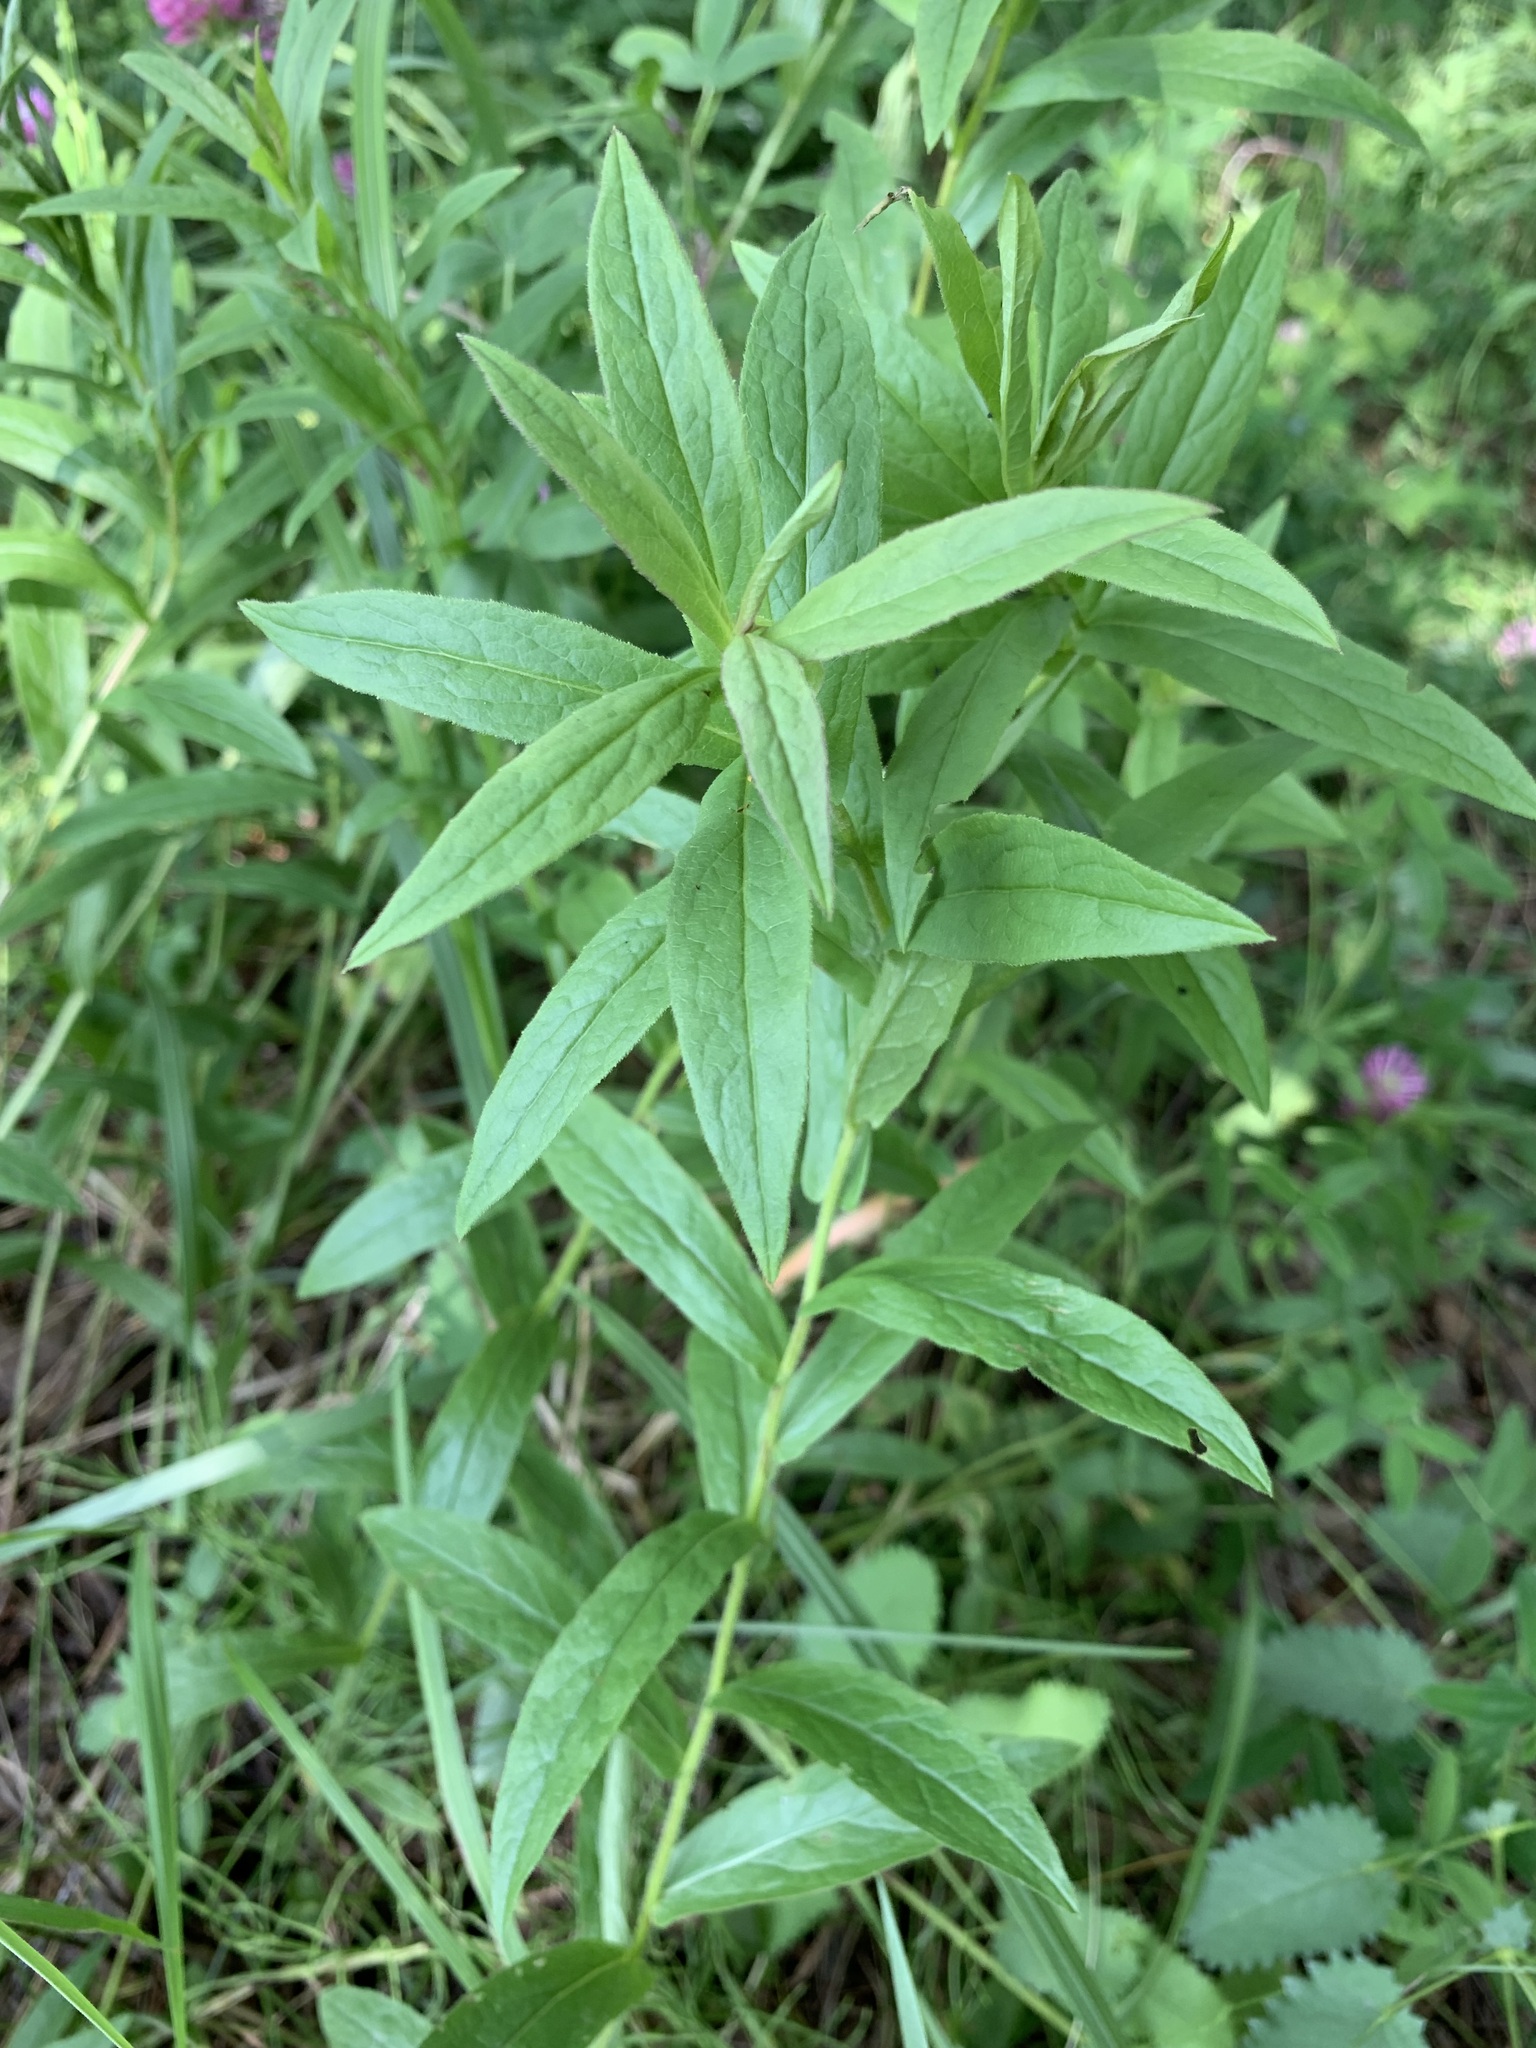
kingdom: Plantae
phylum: Tracheophyta
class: Magnoliopsida
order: Asterales
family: Asteraceae
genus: Pentanema
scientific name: Pentanema salicinum
